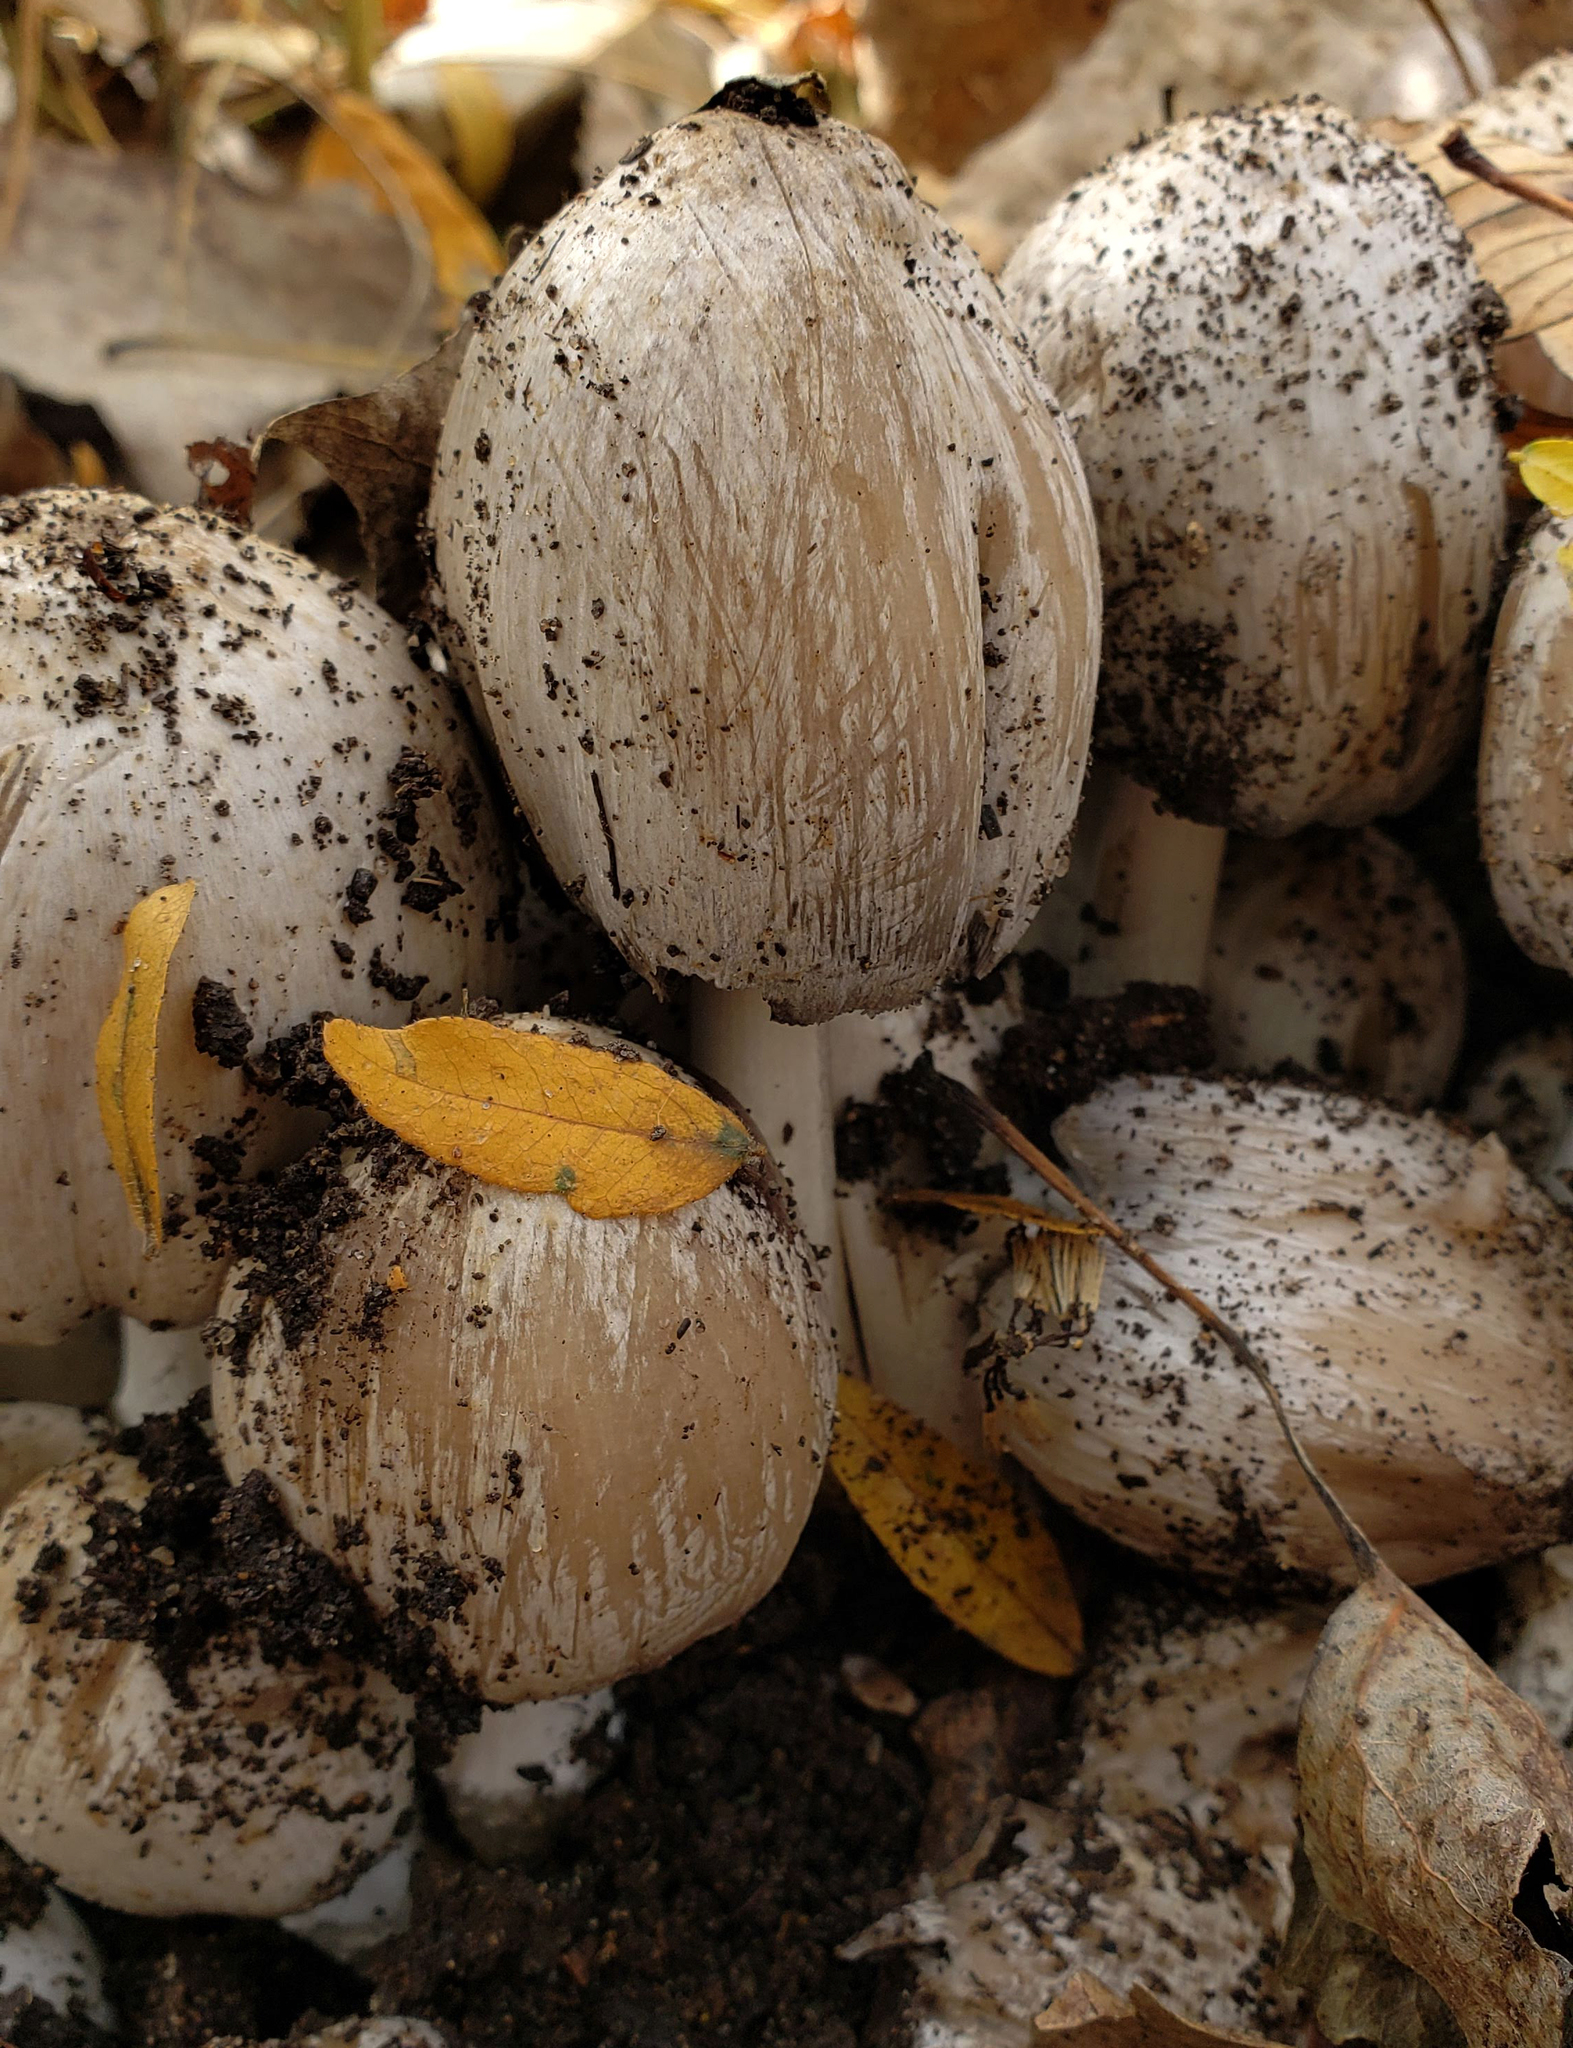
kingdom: Fungi
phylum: Basidiomycota
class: Agaricomycetes
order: Agaricales
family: Psathyrellaceae
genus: Coprinopsis
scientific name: Coprinopsis atramentaria
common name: Common ink-cap
